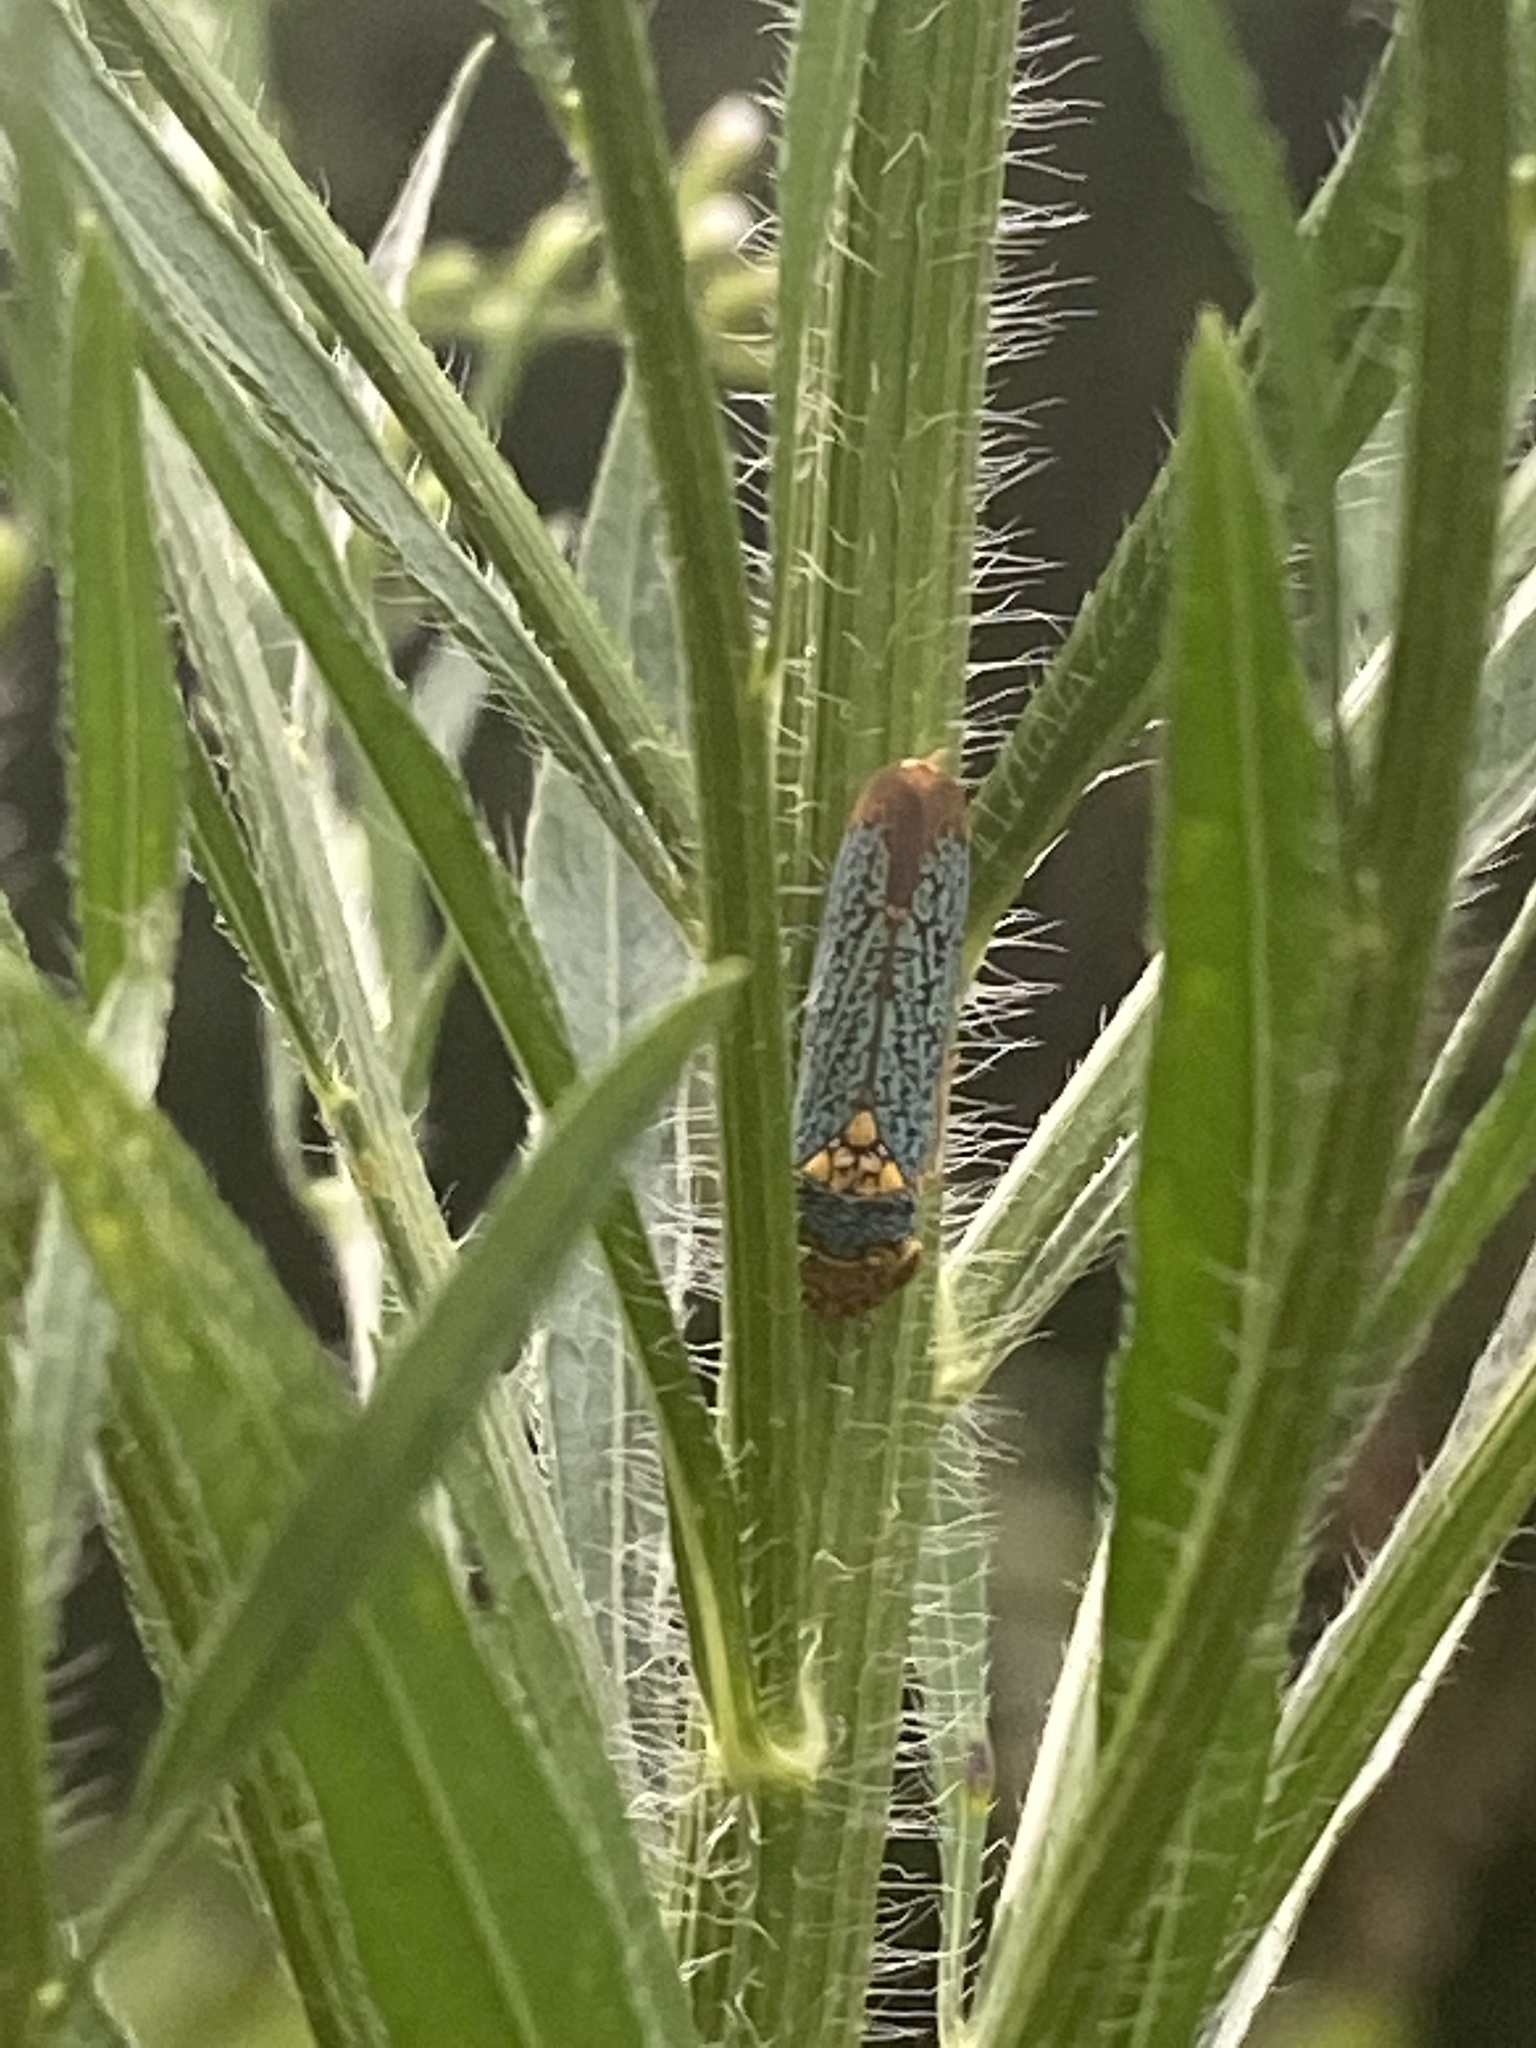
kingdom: Animalia
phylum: Arthropoda
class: Insecta
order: Hemiptera
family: Cicadellidae
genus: Oncometopia
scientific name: Oncometopia orbona
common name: Broad-headed sharpshooter
